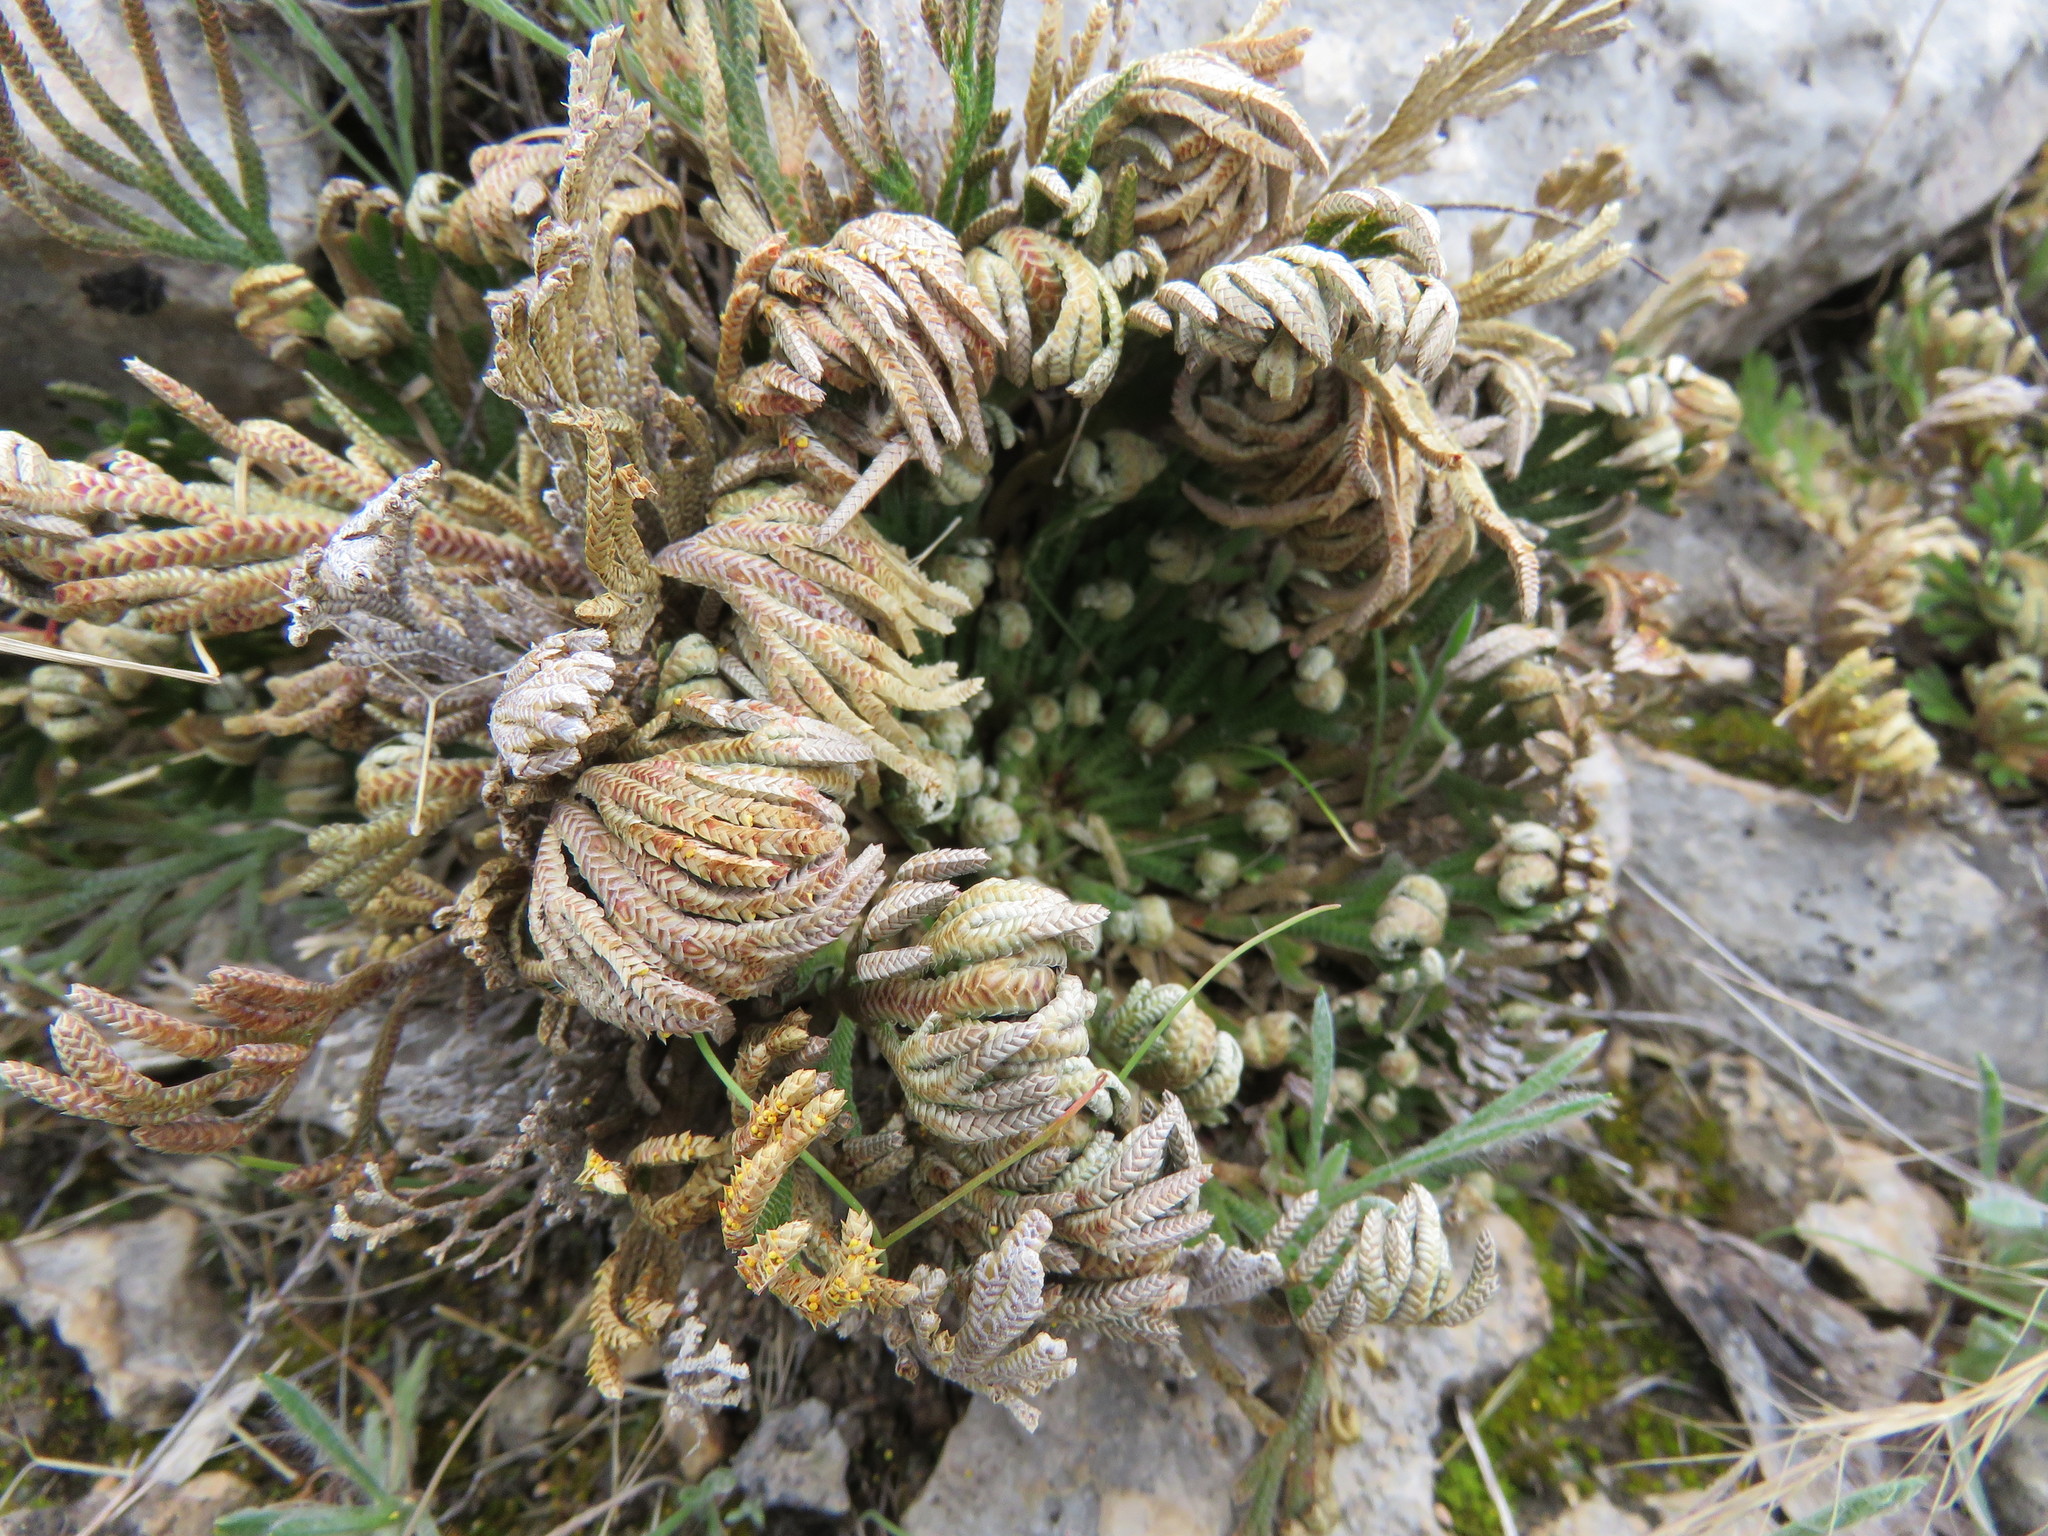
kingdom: Plantae
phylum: Tracheophyta
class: Lycopodiopsida
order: Selaginellales
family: Selaginellaceae
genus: Selaginella
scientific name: Selaginella lepidophylla
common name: Rose-of-jericho
